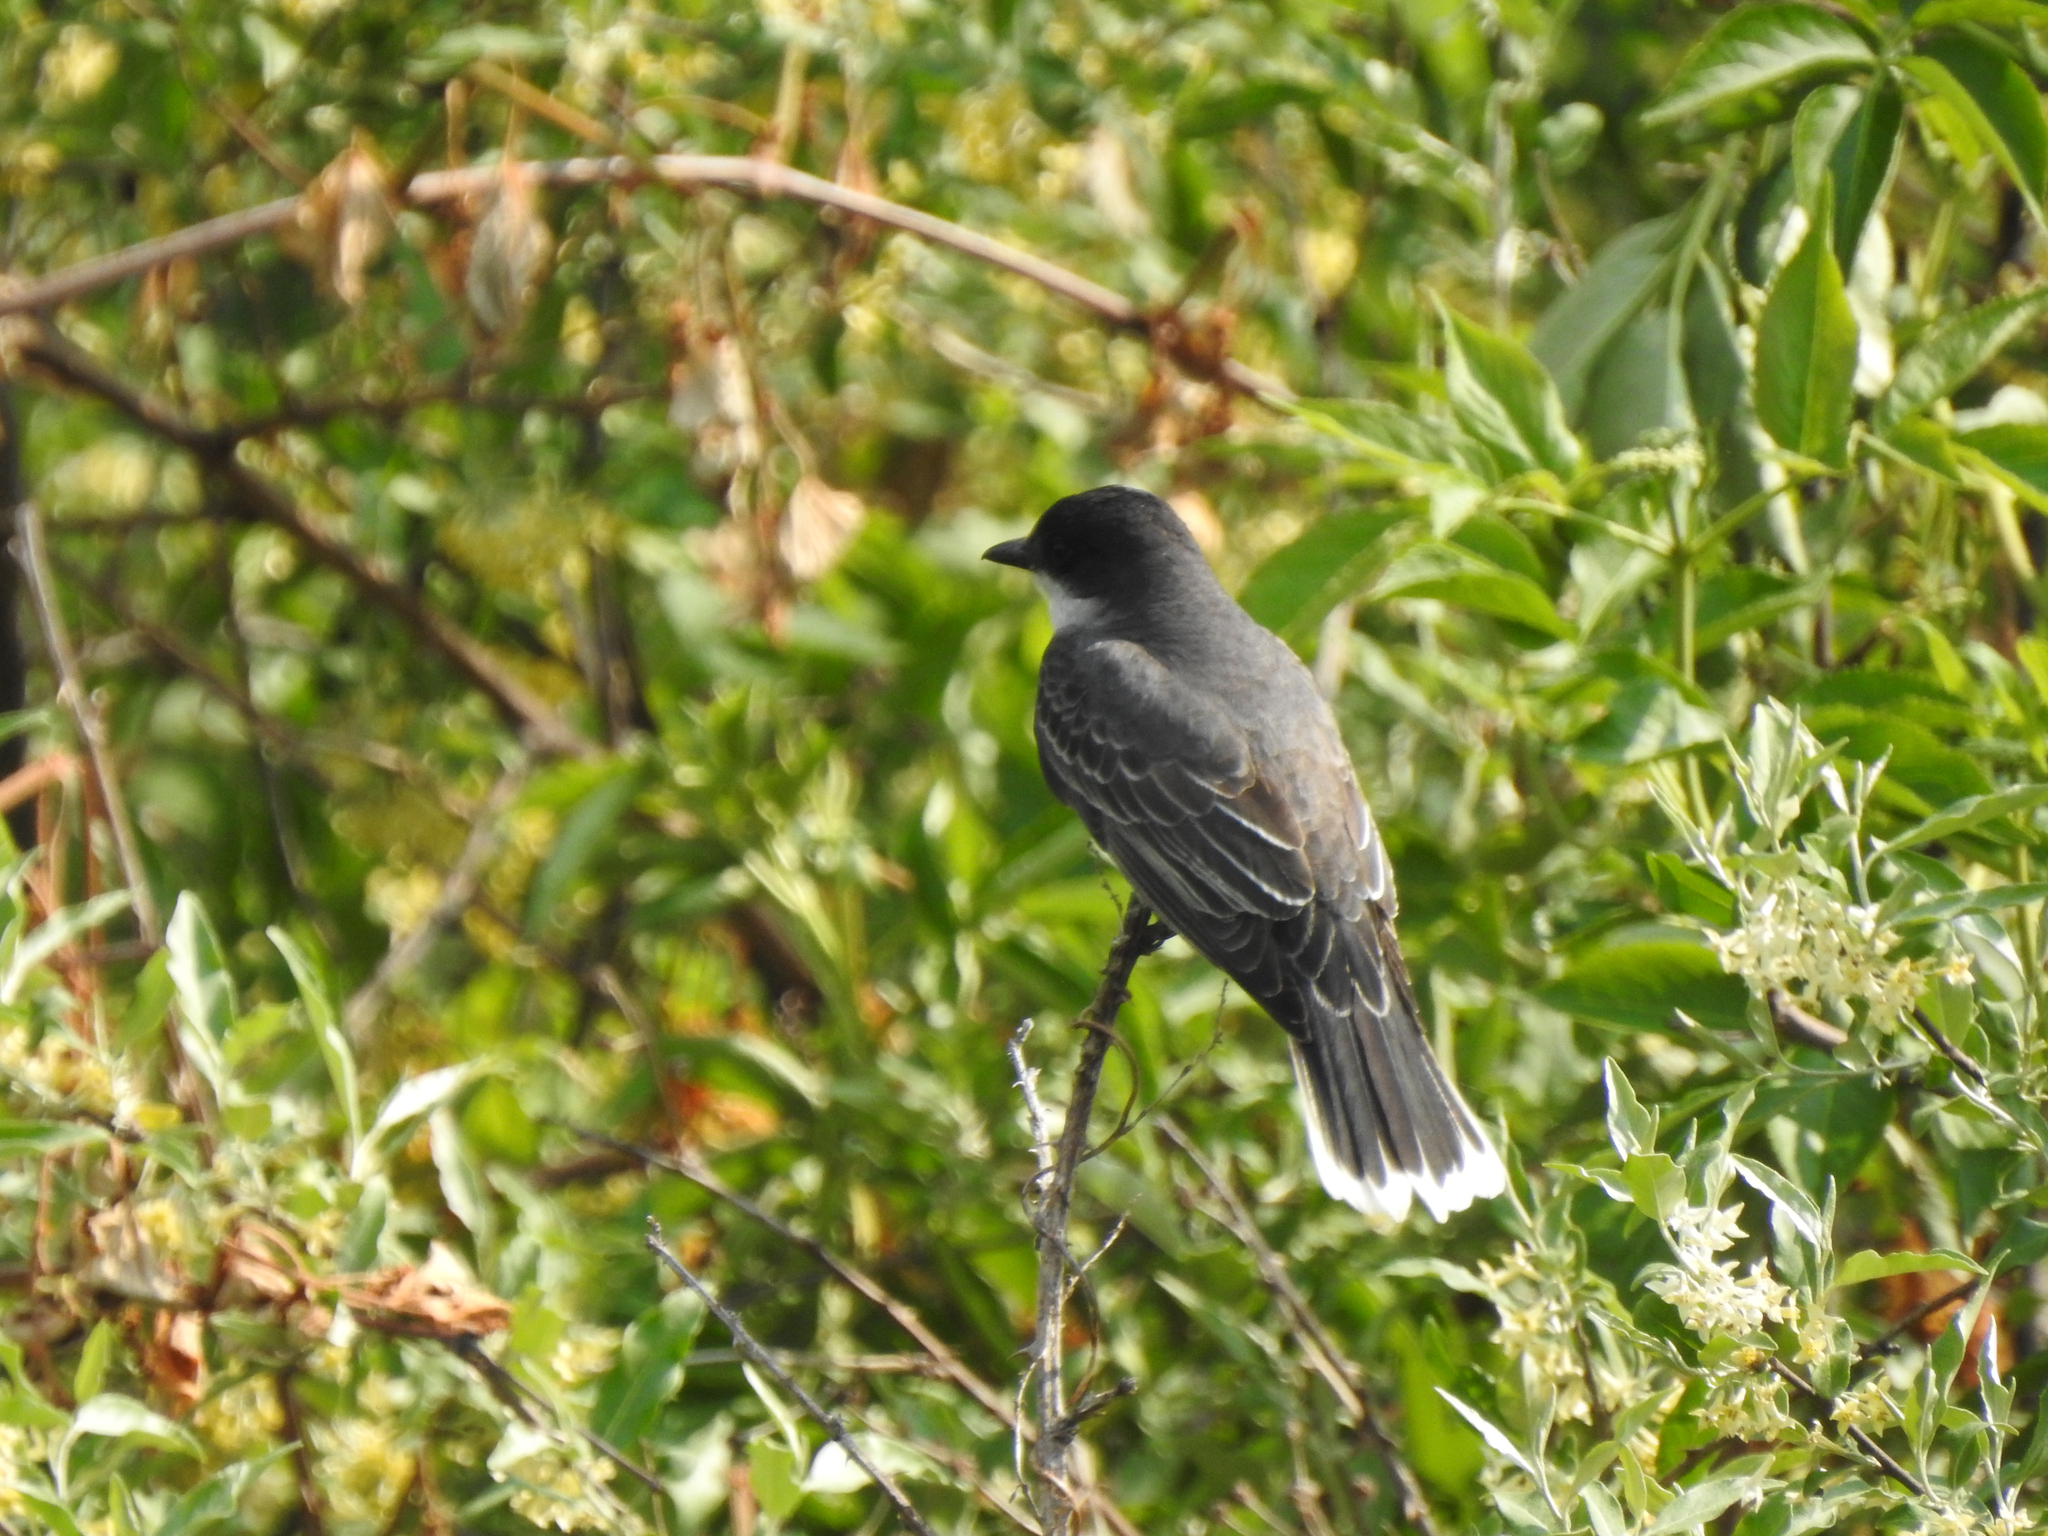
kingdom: Animalia
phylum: Chordata
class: Aves
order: Passeriformes
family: Tyrannidae
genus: Tyrannus
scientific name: Tyrannus tyrannus
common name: Eastern kingbird
